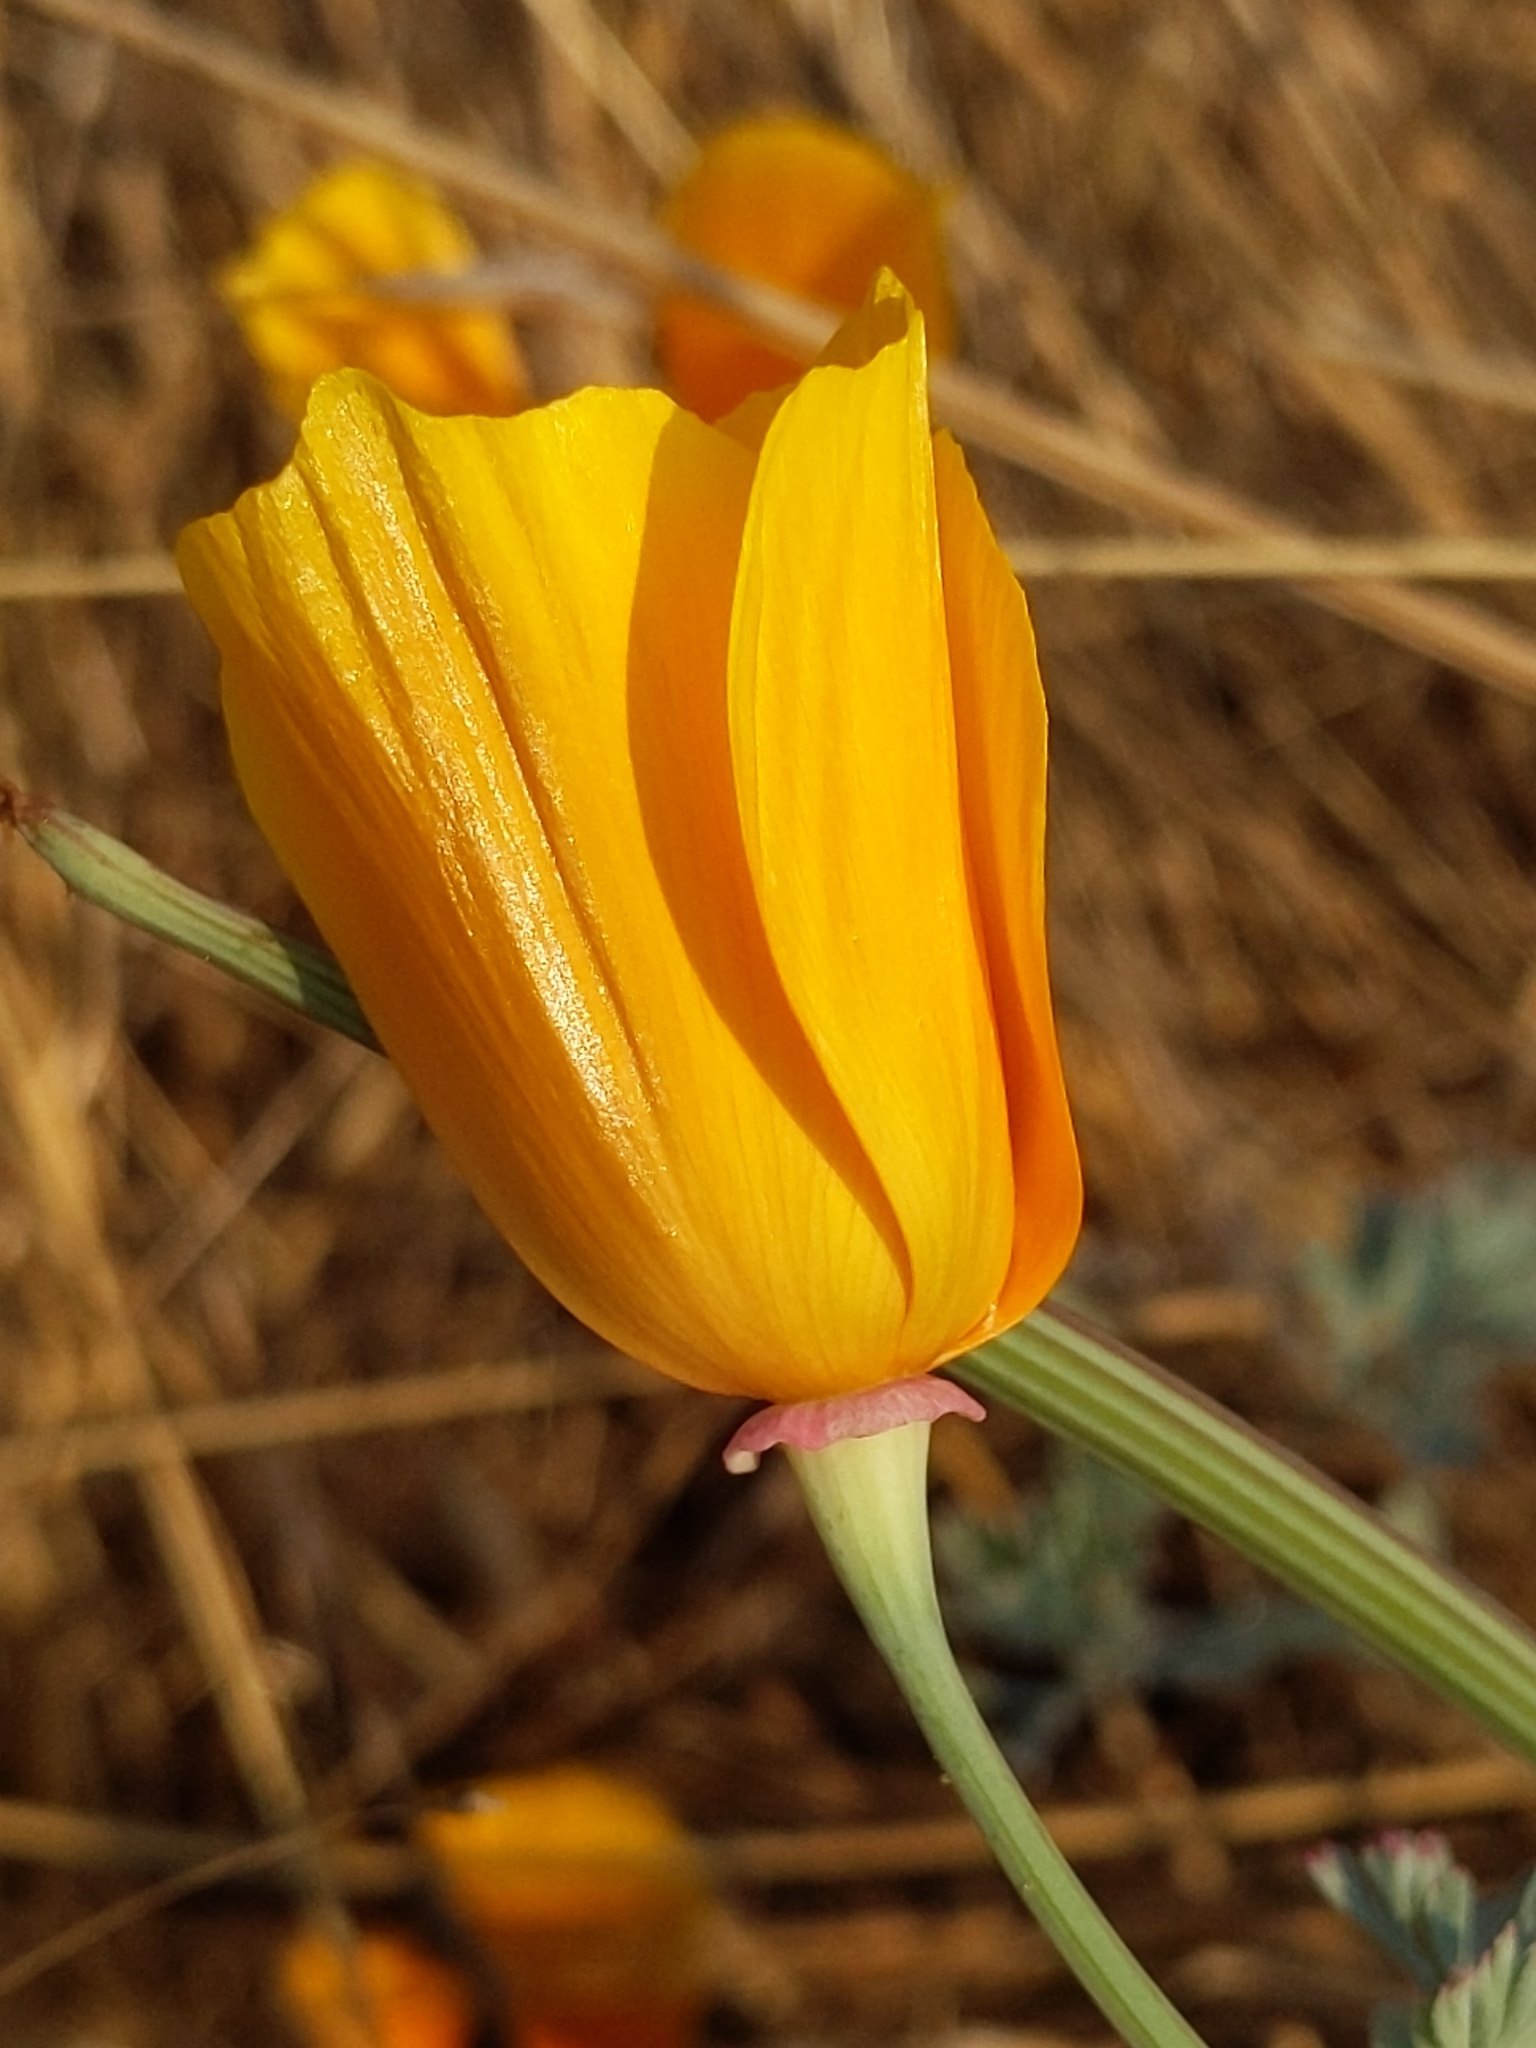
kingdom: Plantae
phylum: Tracheophyta
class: Magnoliopsida
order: Ranunculales
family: Papaveraceae
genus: Eschscholzia
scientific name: Eschscholzia californica
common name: California poppy
